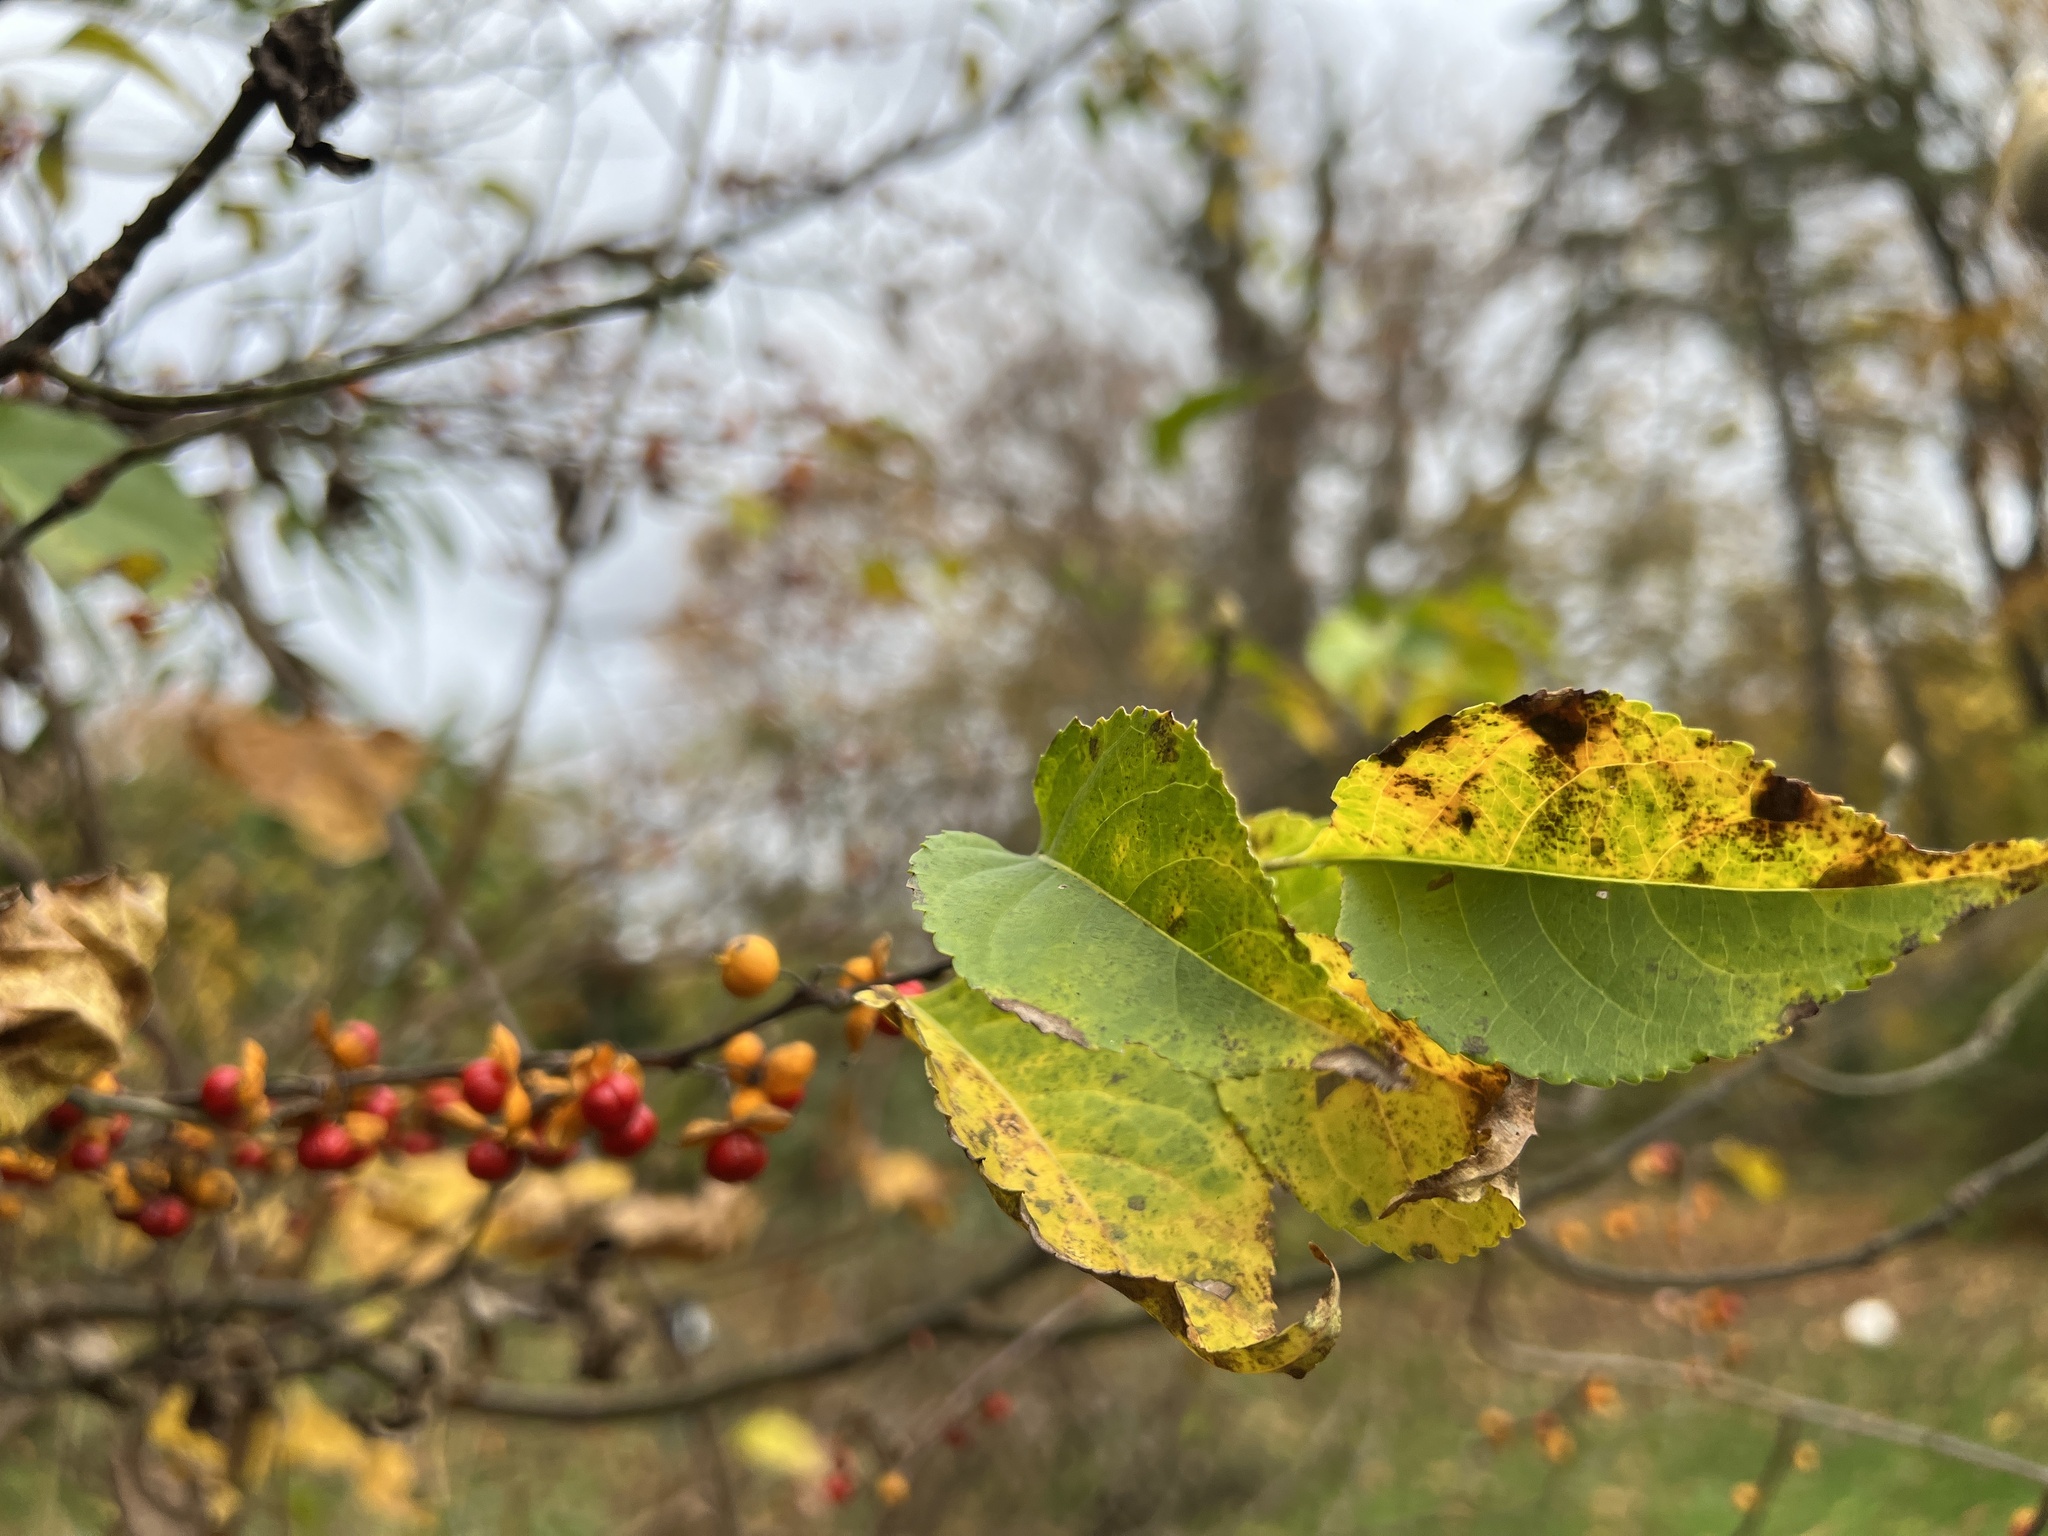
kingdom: Plantae
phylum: Tracheophyta
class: Magnoliopsida
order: Celastrales
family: Celastraceae
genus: Celastrus
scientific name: Celastrus orbiculatus
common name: Oriental bittersweet
